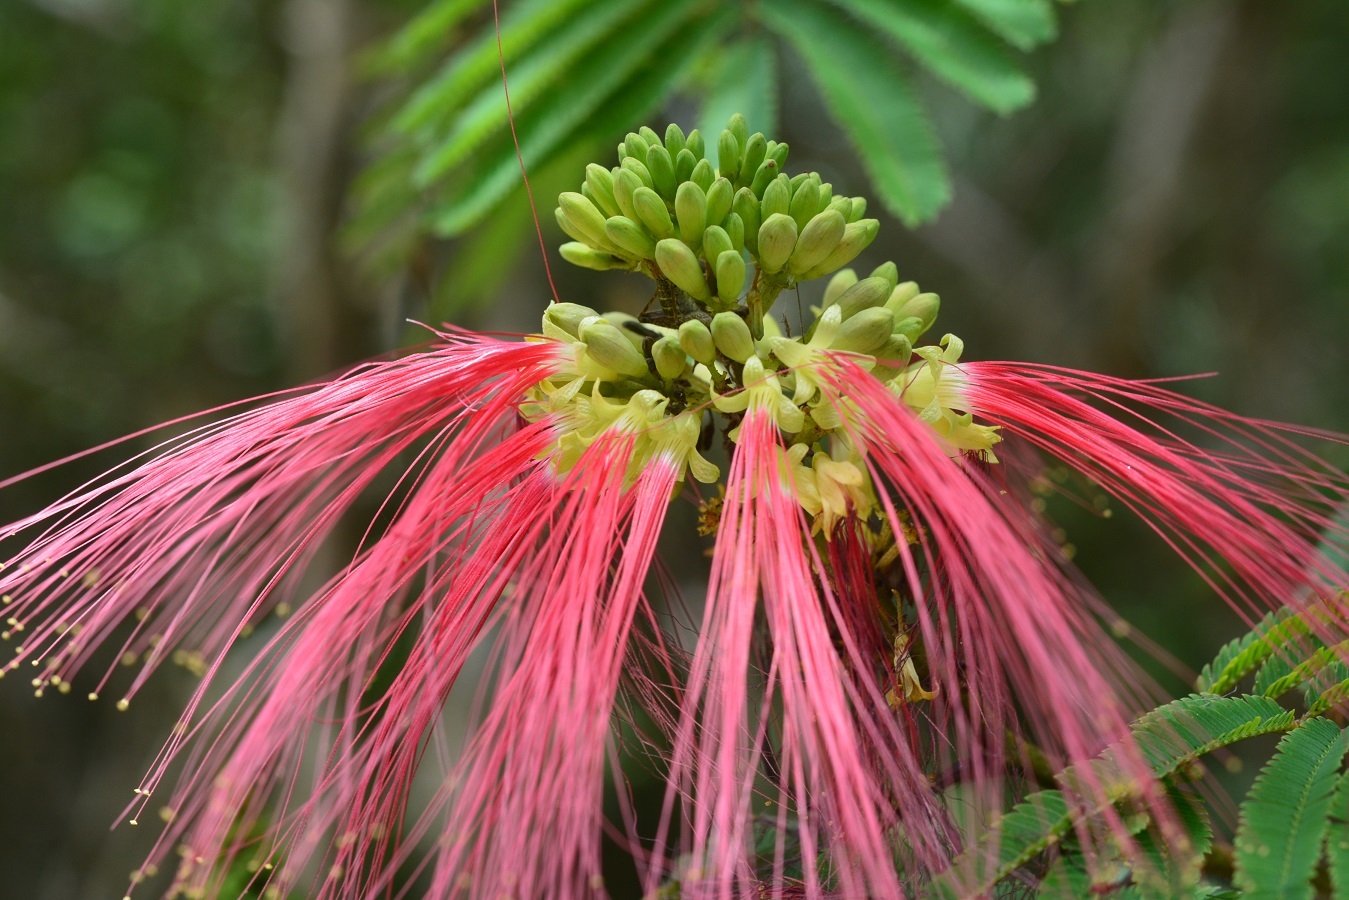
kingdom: Plantae
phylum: Tracheophyta
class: Magnoliopsida
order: Fabales
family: Fabaceae
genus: Calliandra
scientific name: Calliandra houstoniana
